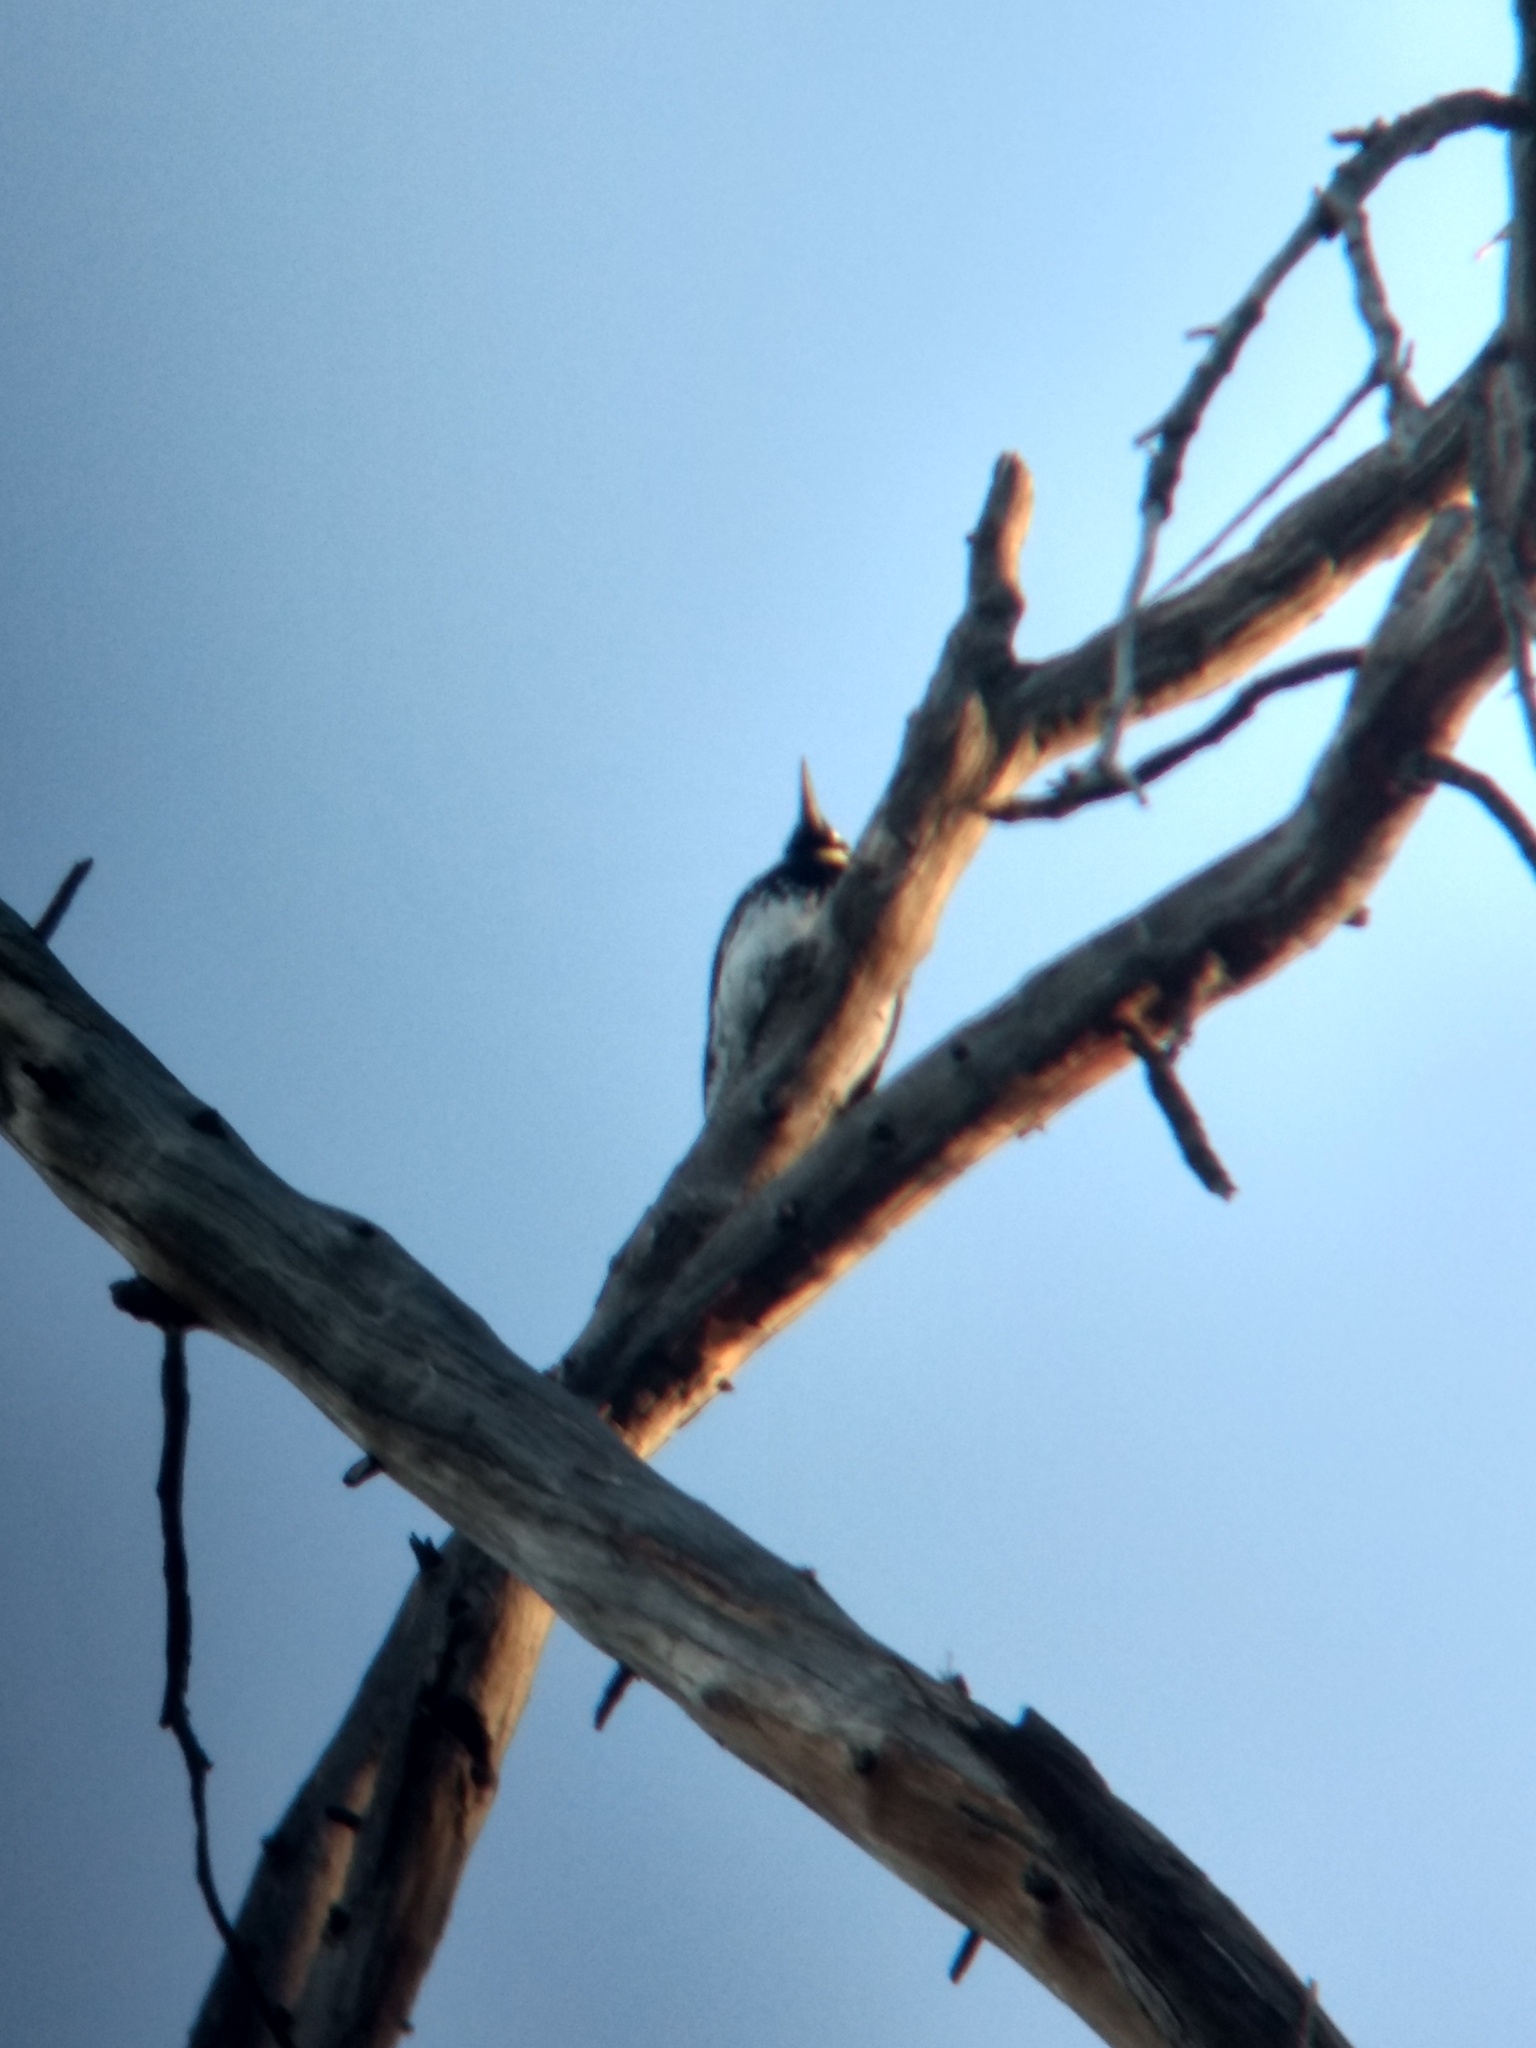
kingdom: Animalia
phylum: Chordata
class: Aves
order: Piciformes
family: Picidae
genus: Melanerpes
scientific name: Melanerpes formicivorus
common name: Acorn woodpecker
